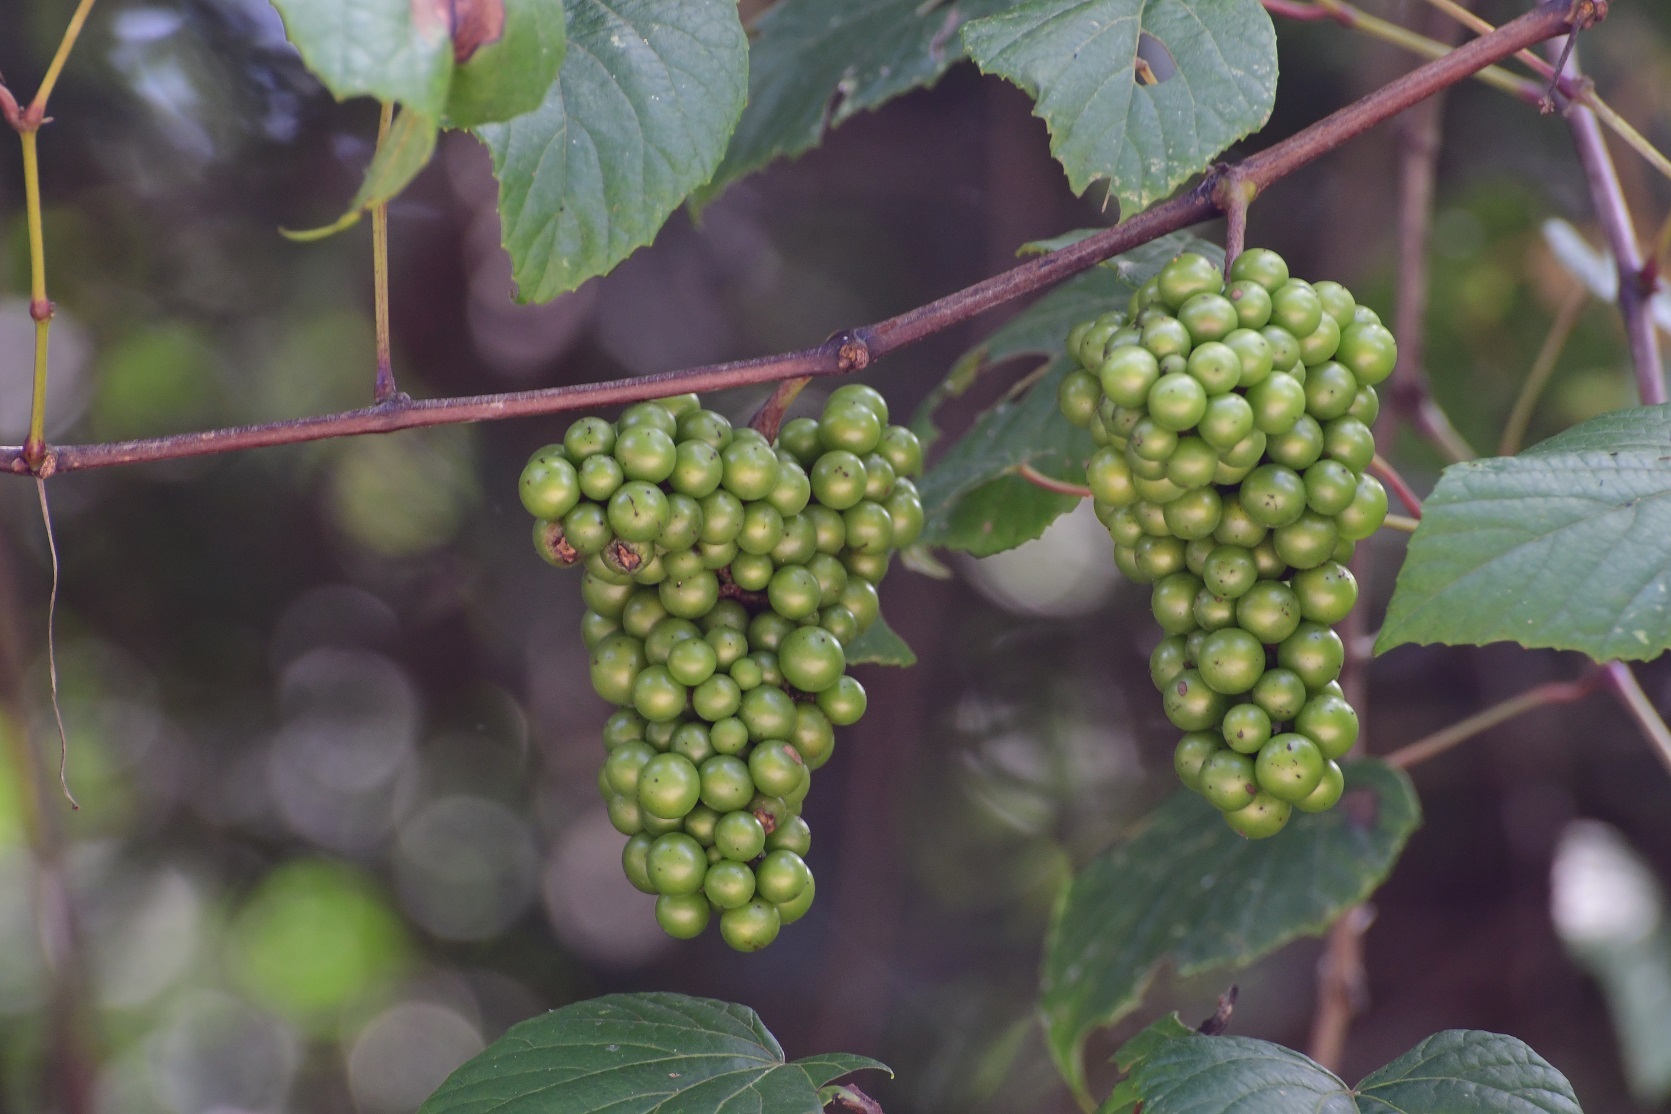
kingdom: Plantae
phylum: Tracheophyta
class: Magnoliopsida
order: Vitales
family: Vitaceae
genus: Vitis
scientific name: Vitis tiliifolia
